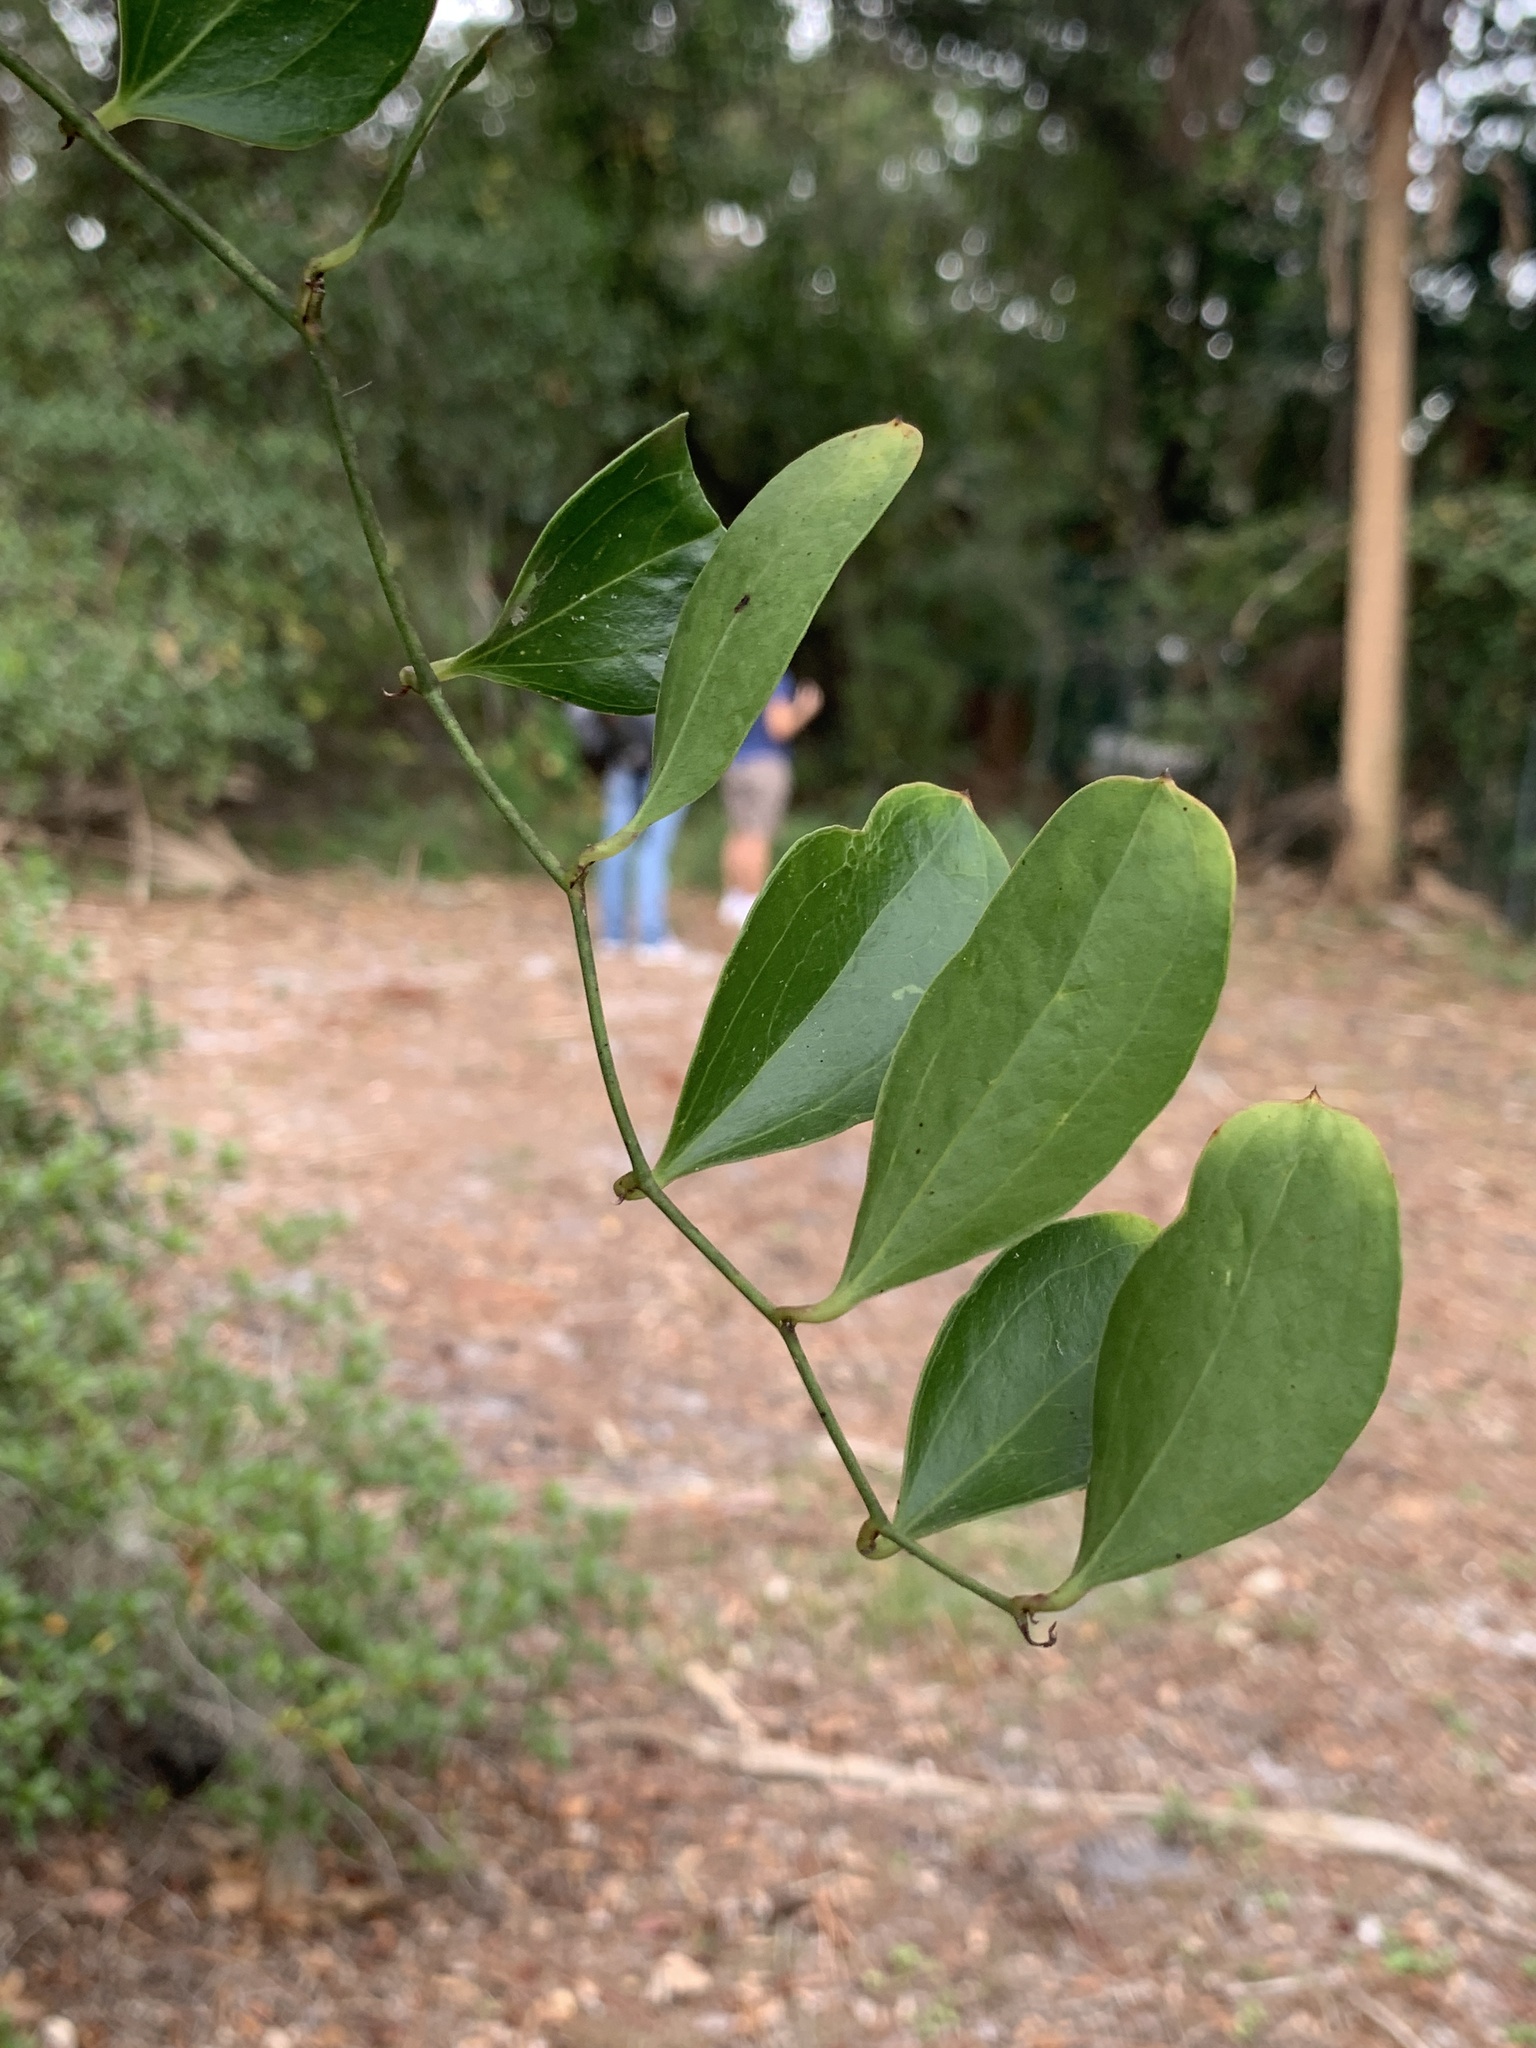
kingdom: Plantae
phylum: Tracheophyta
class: Liliopsida
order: Liliales
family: Smilacaceae
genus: Smilax
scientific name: Smilax auriculata
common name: Wild bamboo
